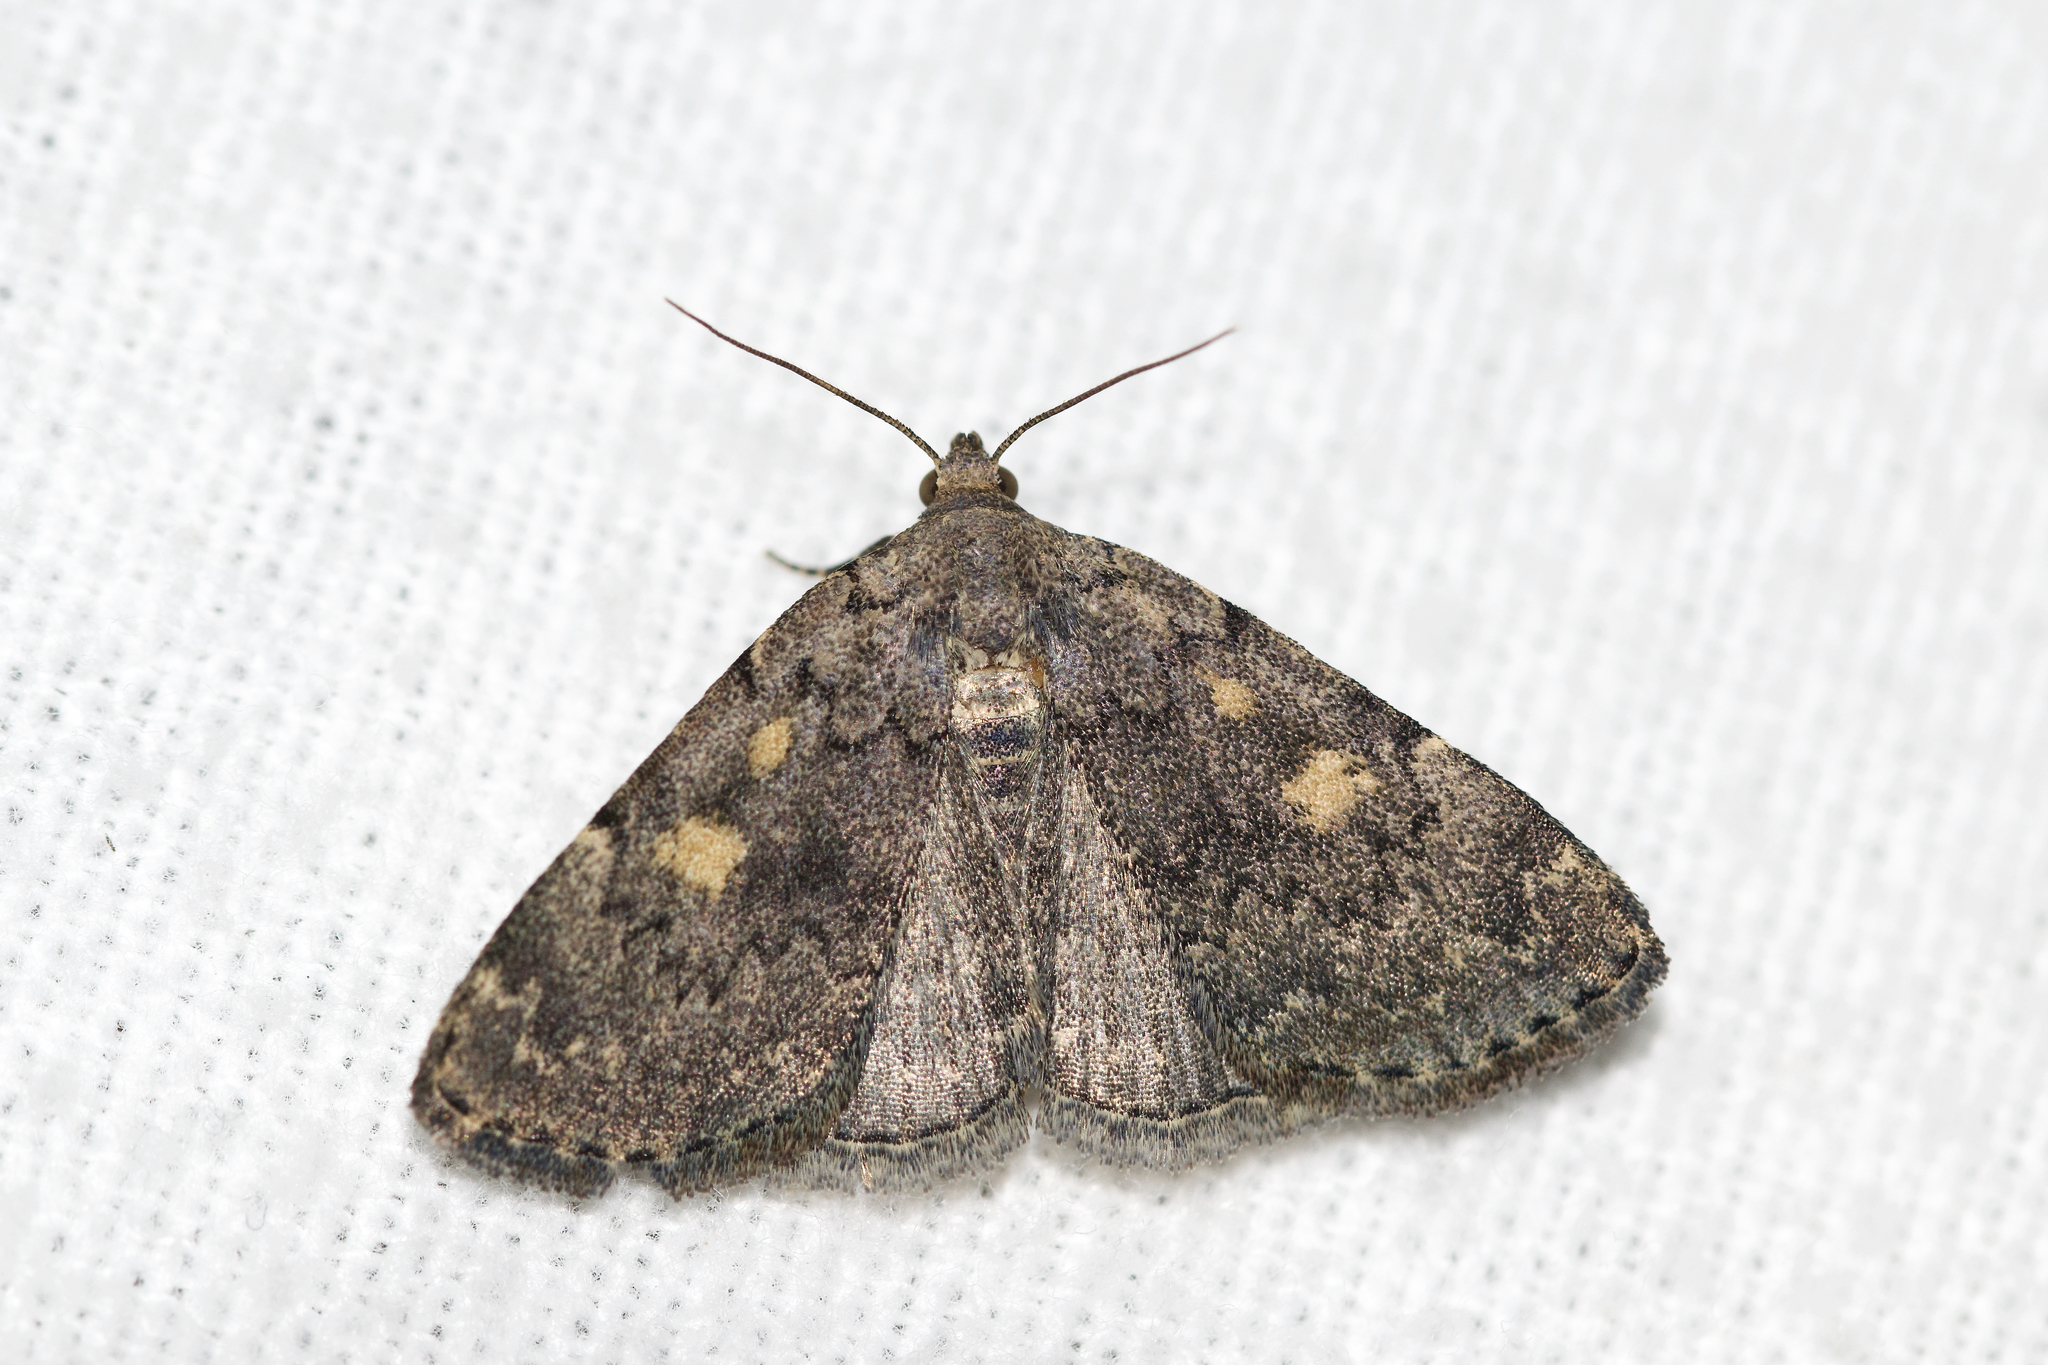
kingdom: Animalia
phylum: Arthropoda
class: Insecta
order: Lepidoptera
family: Erebidae
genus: Idia
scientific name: Idia aemula
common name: Common idia moth
